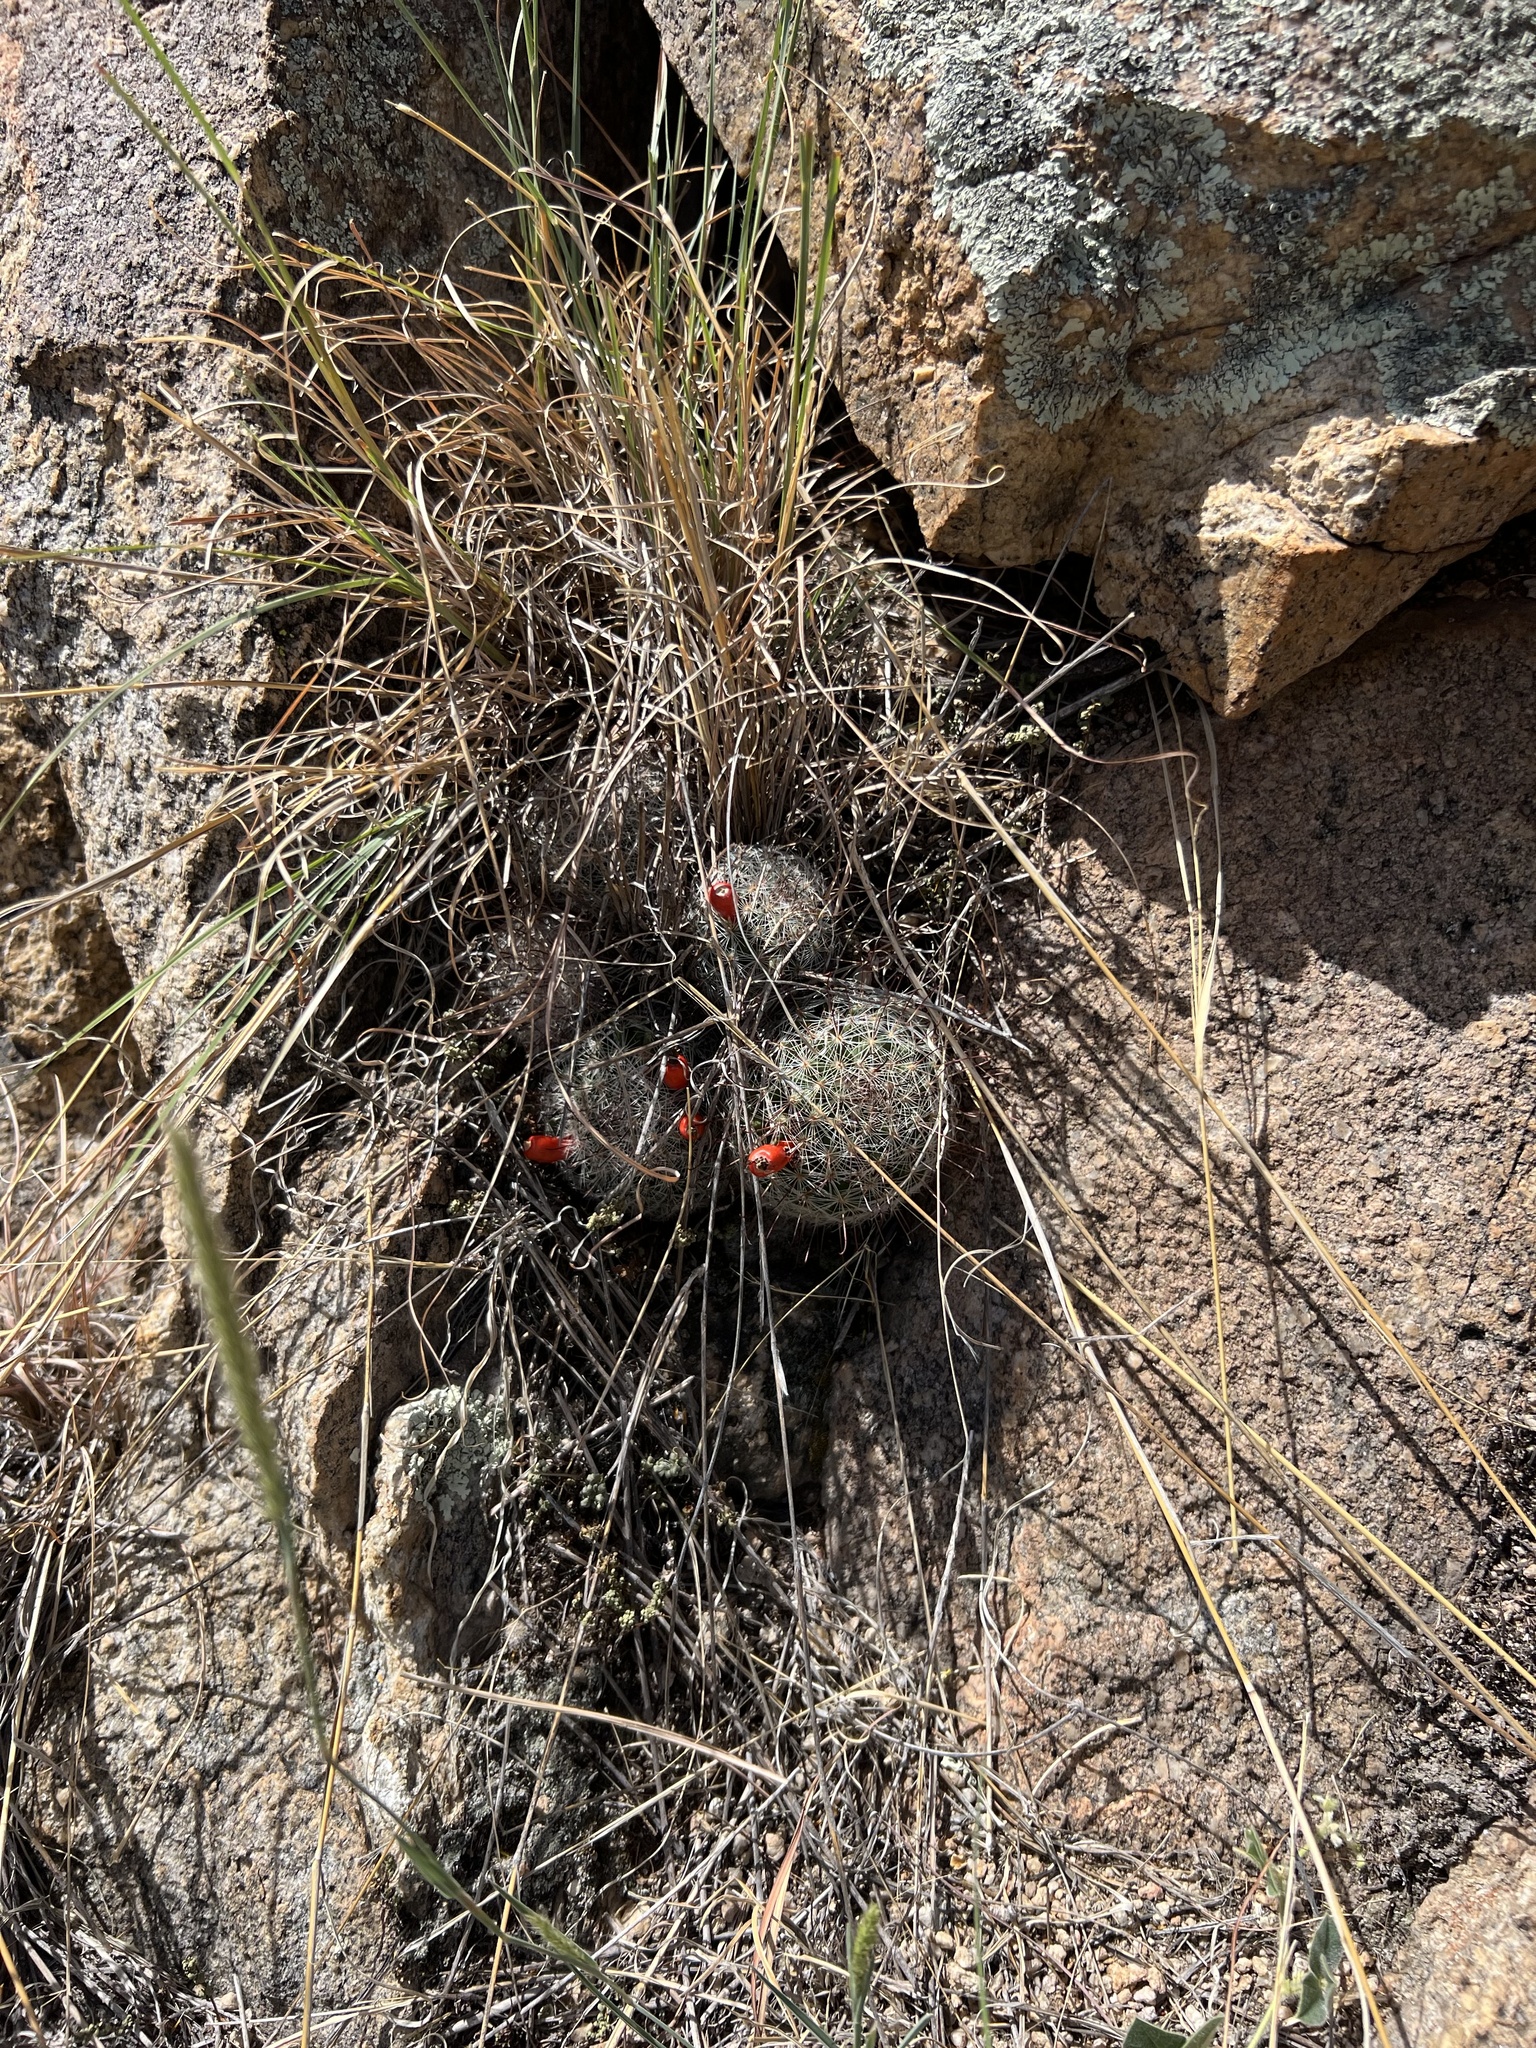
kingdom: Plantae
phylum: Tracheophyta
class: Magnoliopsida
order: Caryophyllales
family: Cactaceae
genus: Cochemiea
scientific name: Cochemiea grahamii
